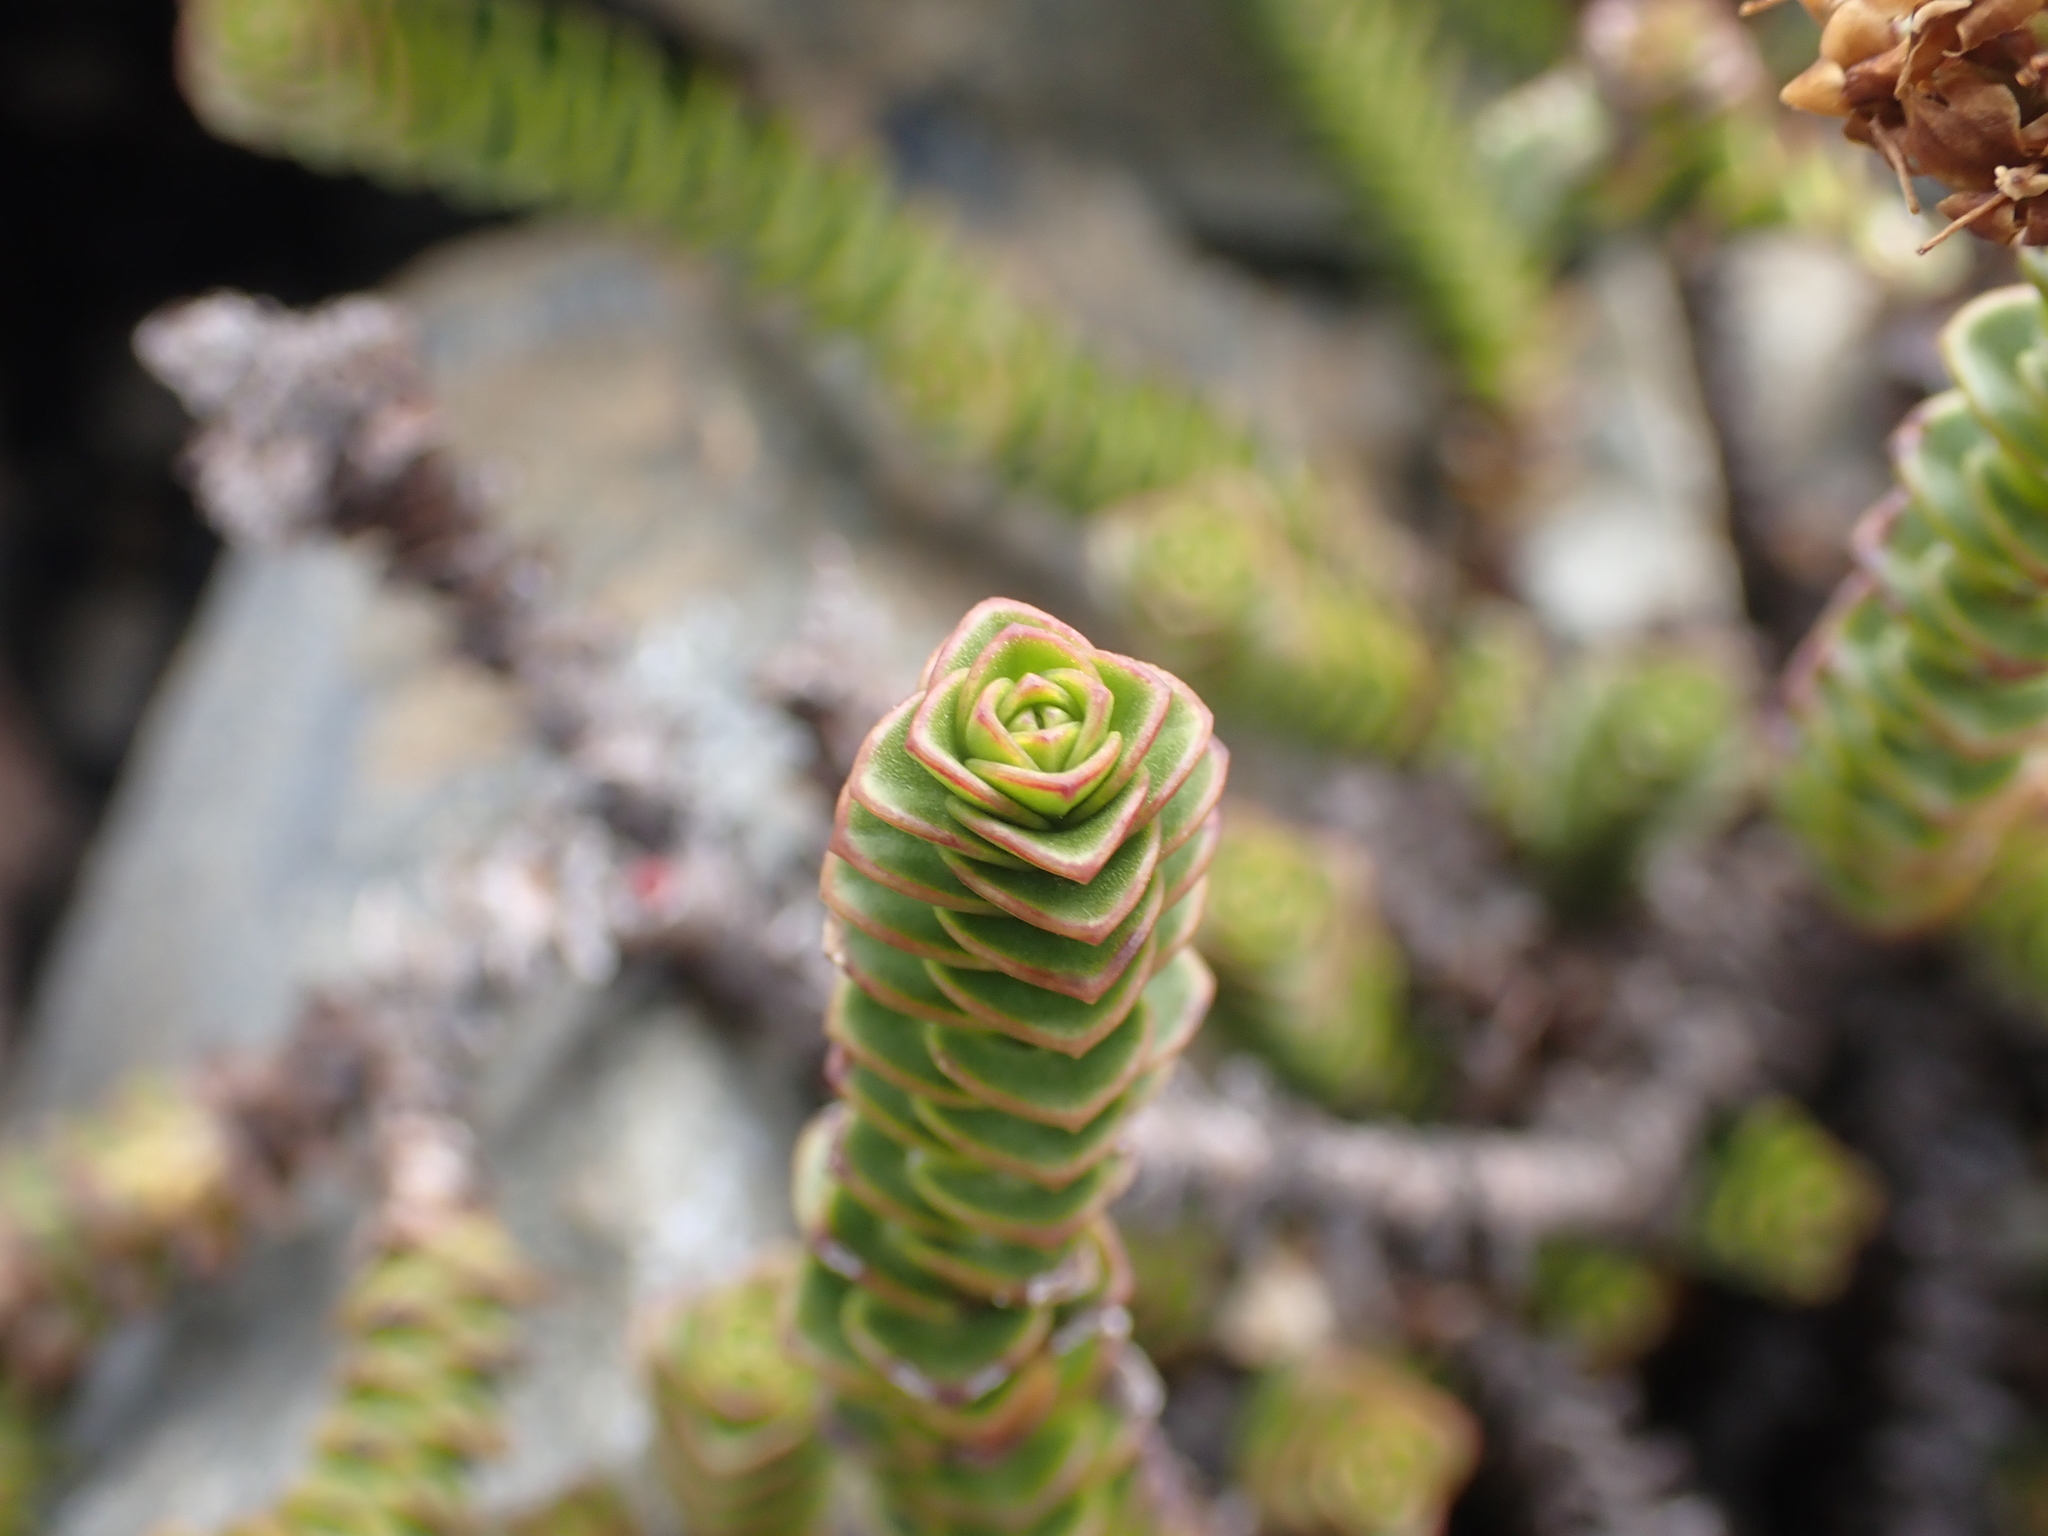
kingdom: Plantae
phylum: Tracheophyta
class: Magnoliopsida
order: Lamiales
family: Plantaginaceae
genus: Veronica
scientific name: Veronica epacridea
